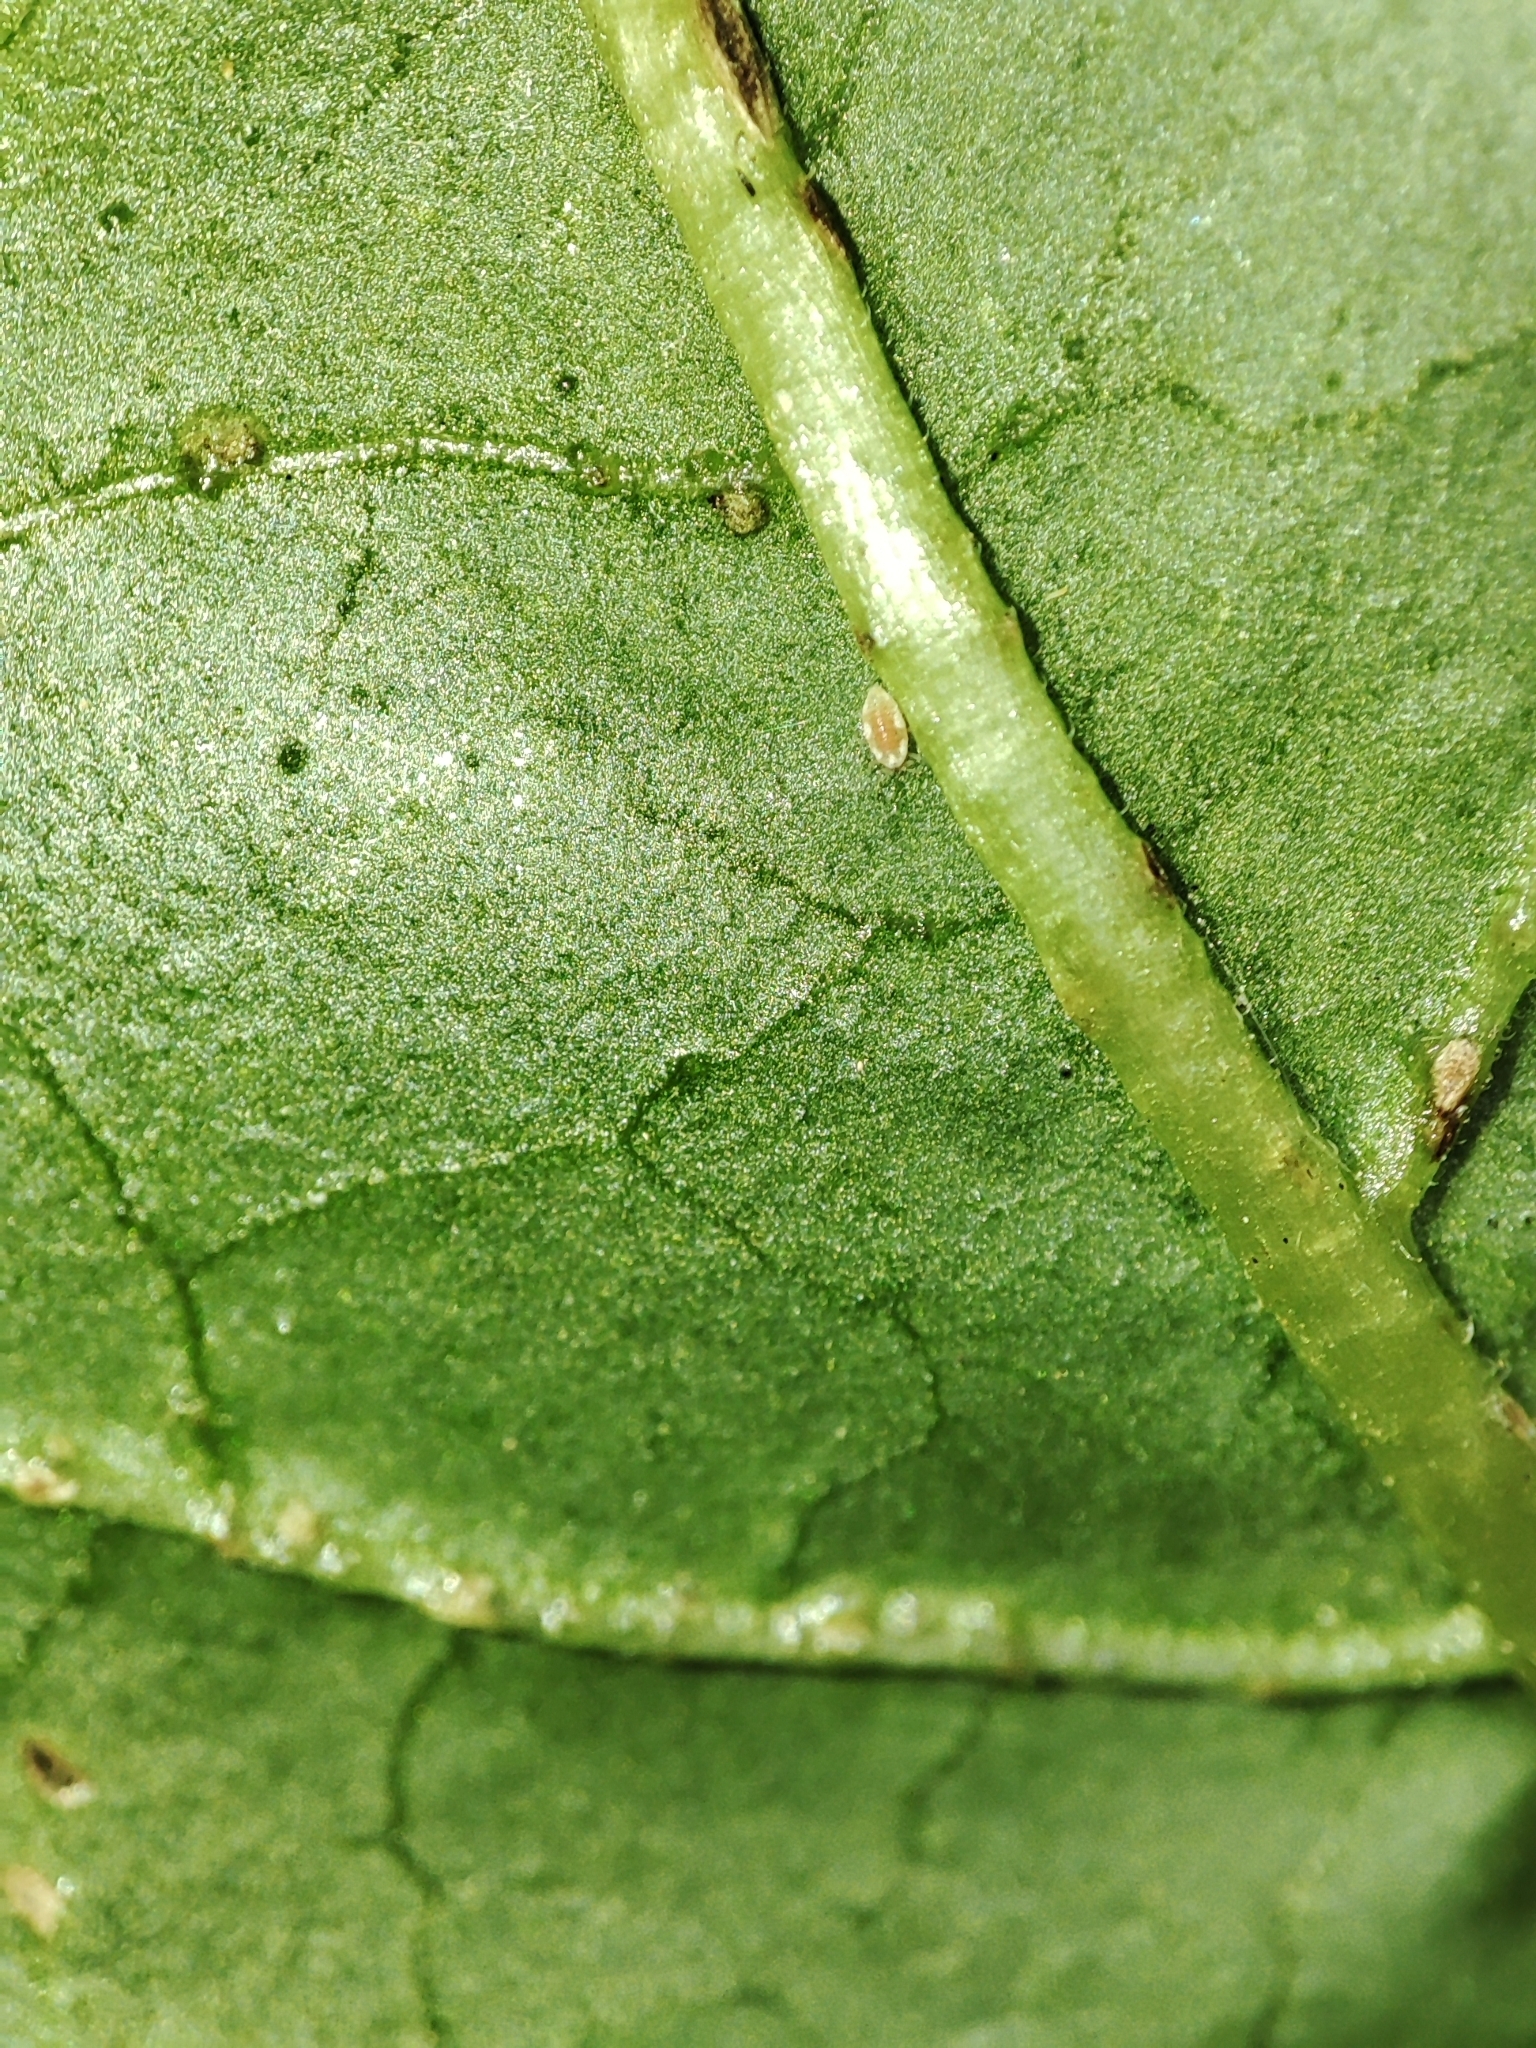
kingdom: Plantae
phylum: Tracheophyta
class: Magnoliopsida
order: Solanales
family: Solanaceae
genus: Solanum
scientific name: Solanum dulcamara
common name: Climbing nightshade
